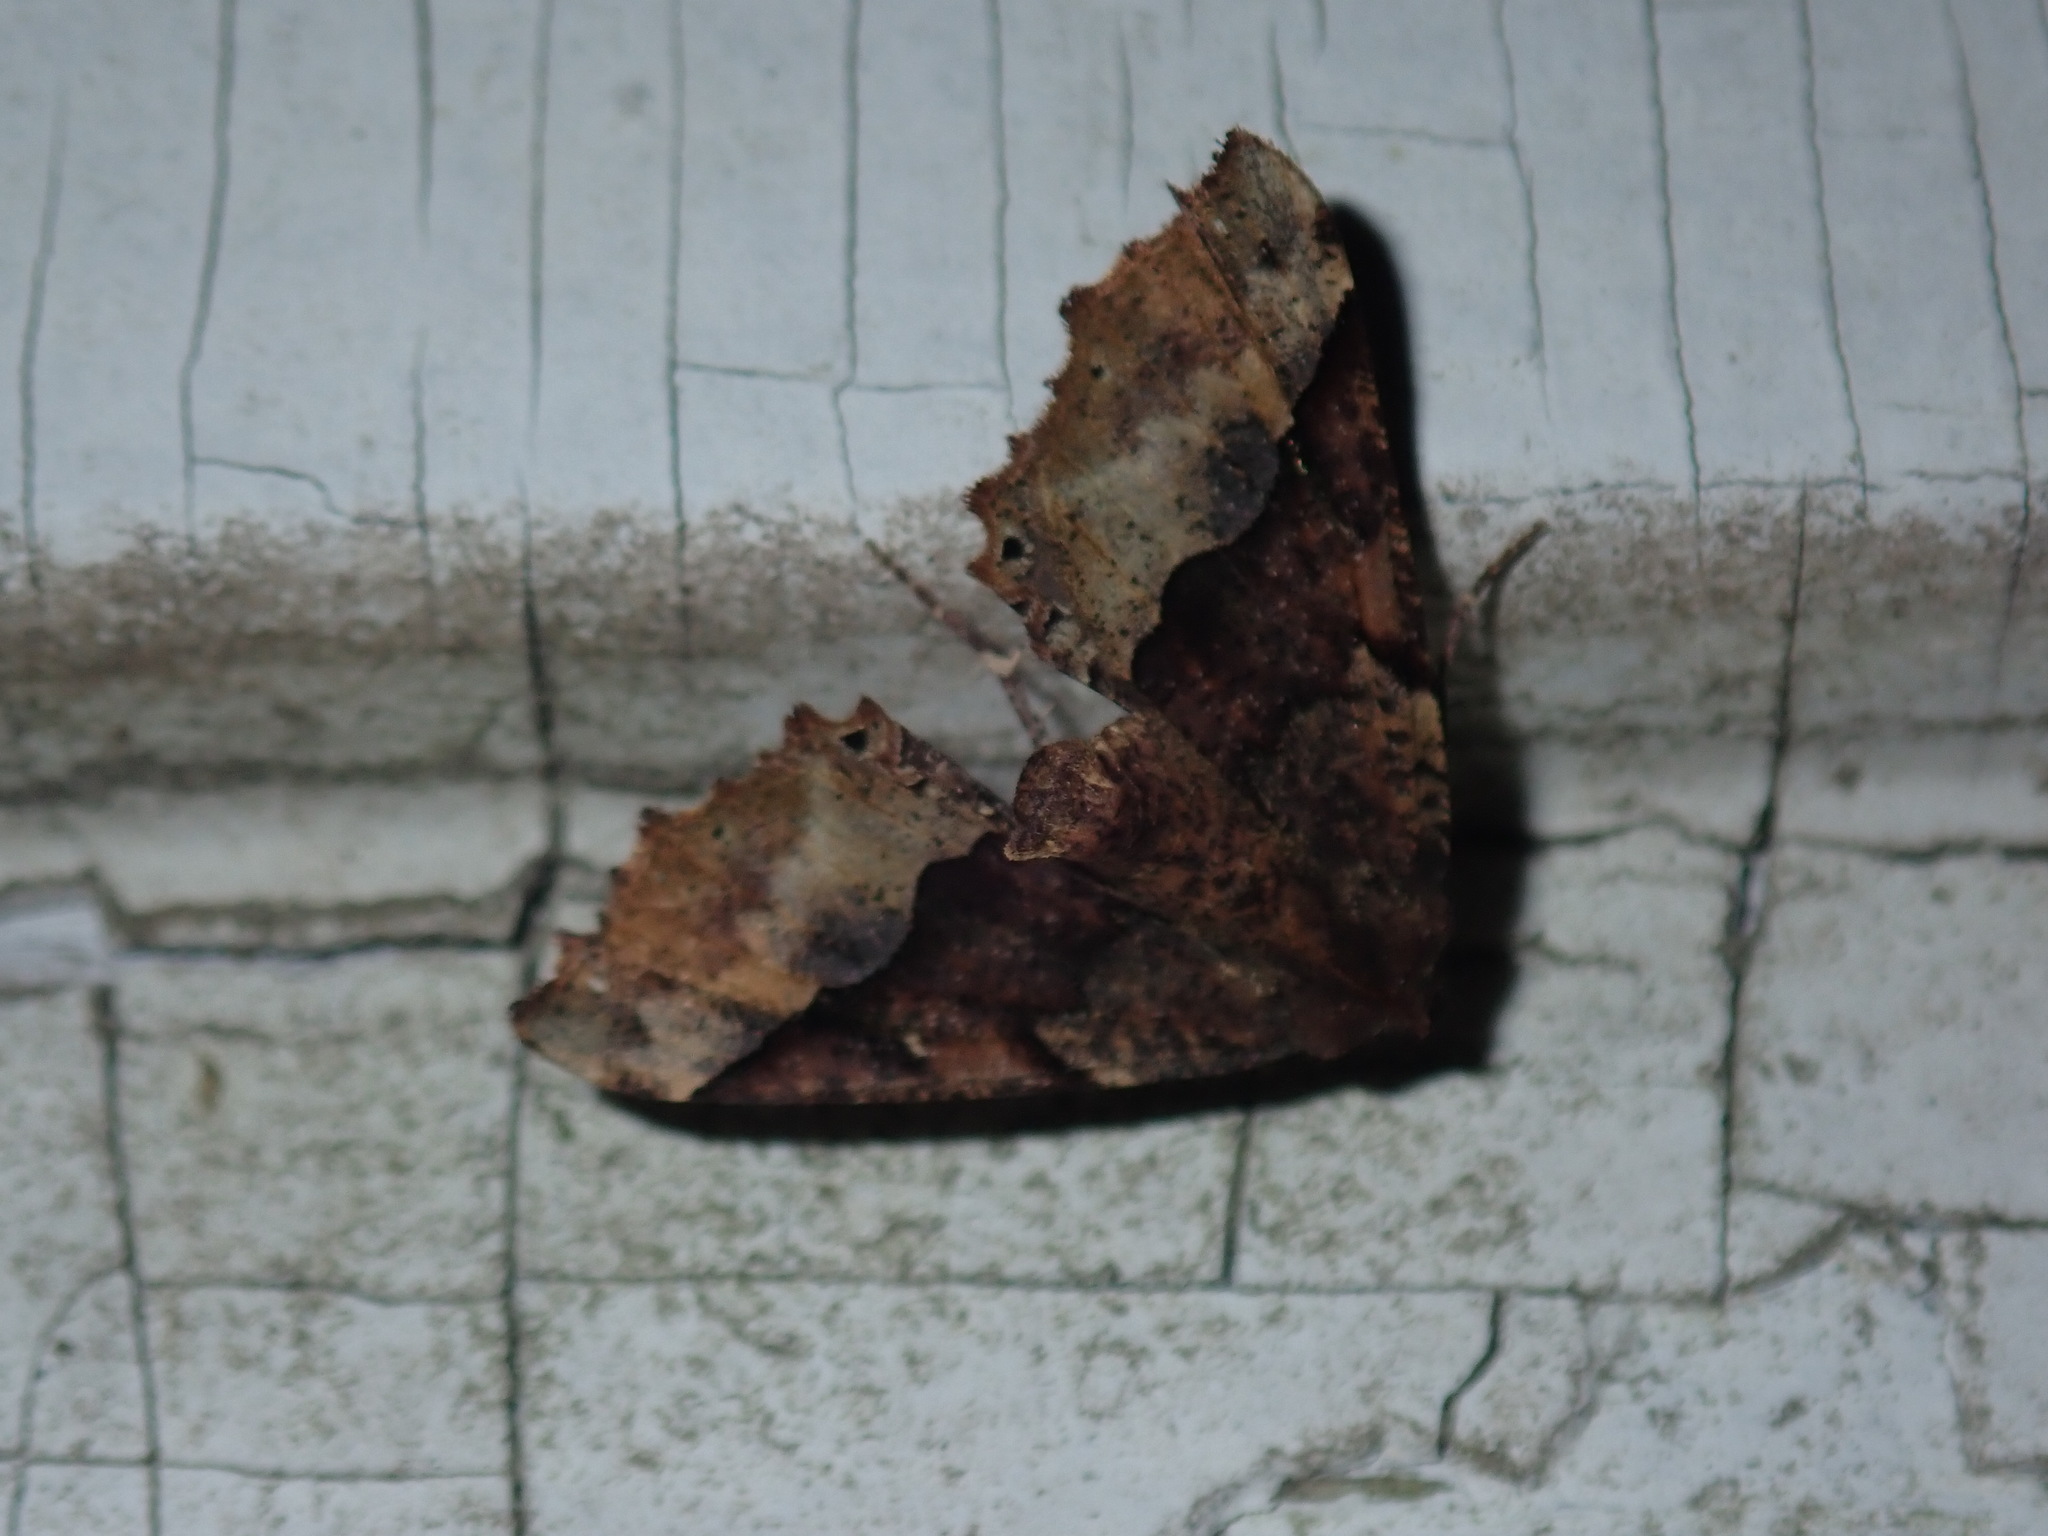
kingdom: Animalia
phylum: Arthropoda
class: Insecta
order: Lepidoptera
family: Geometridae
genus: Pero
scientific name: Pero morrisonaria
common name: Morrison's pero
